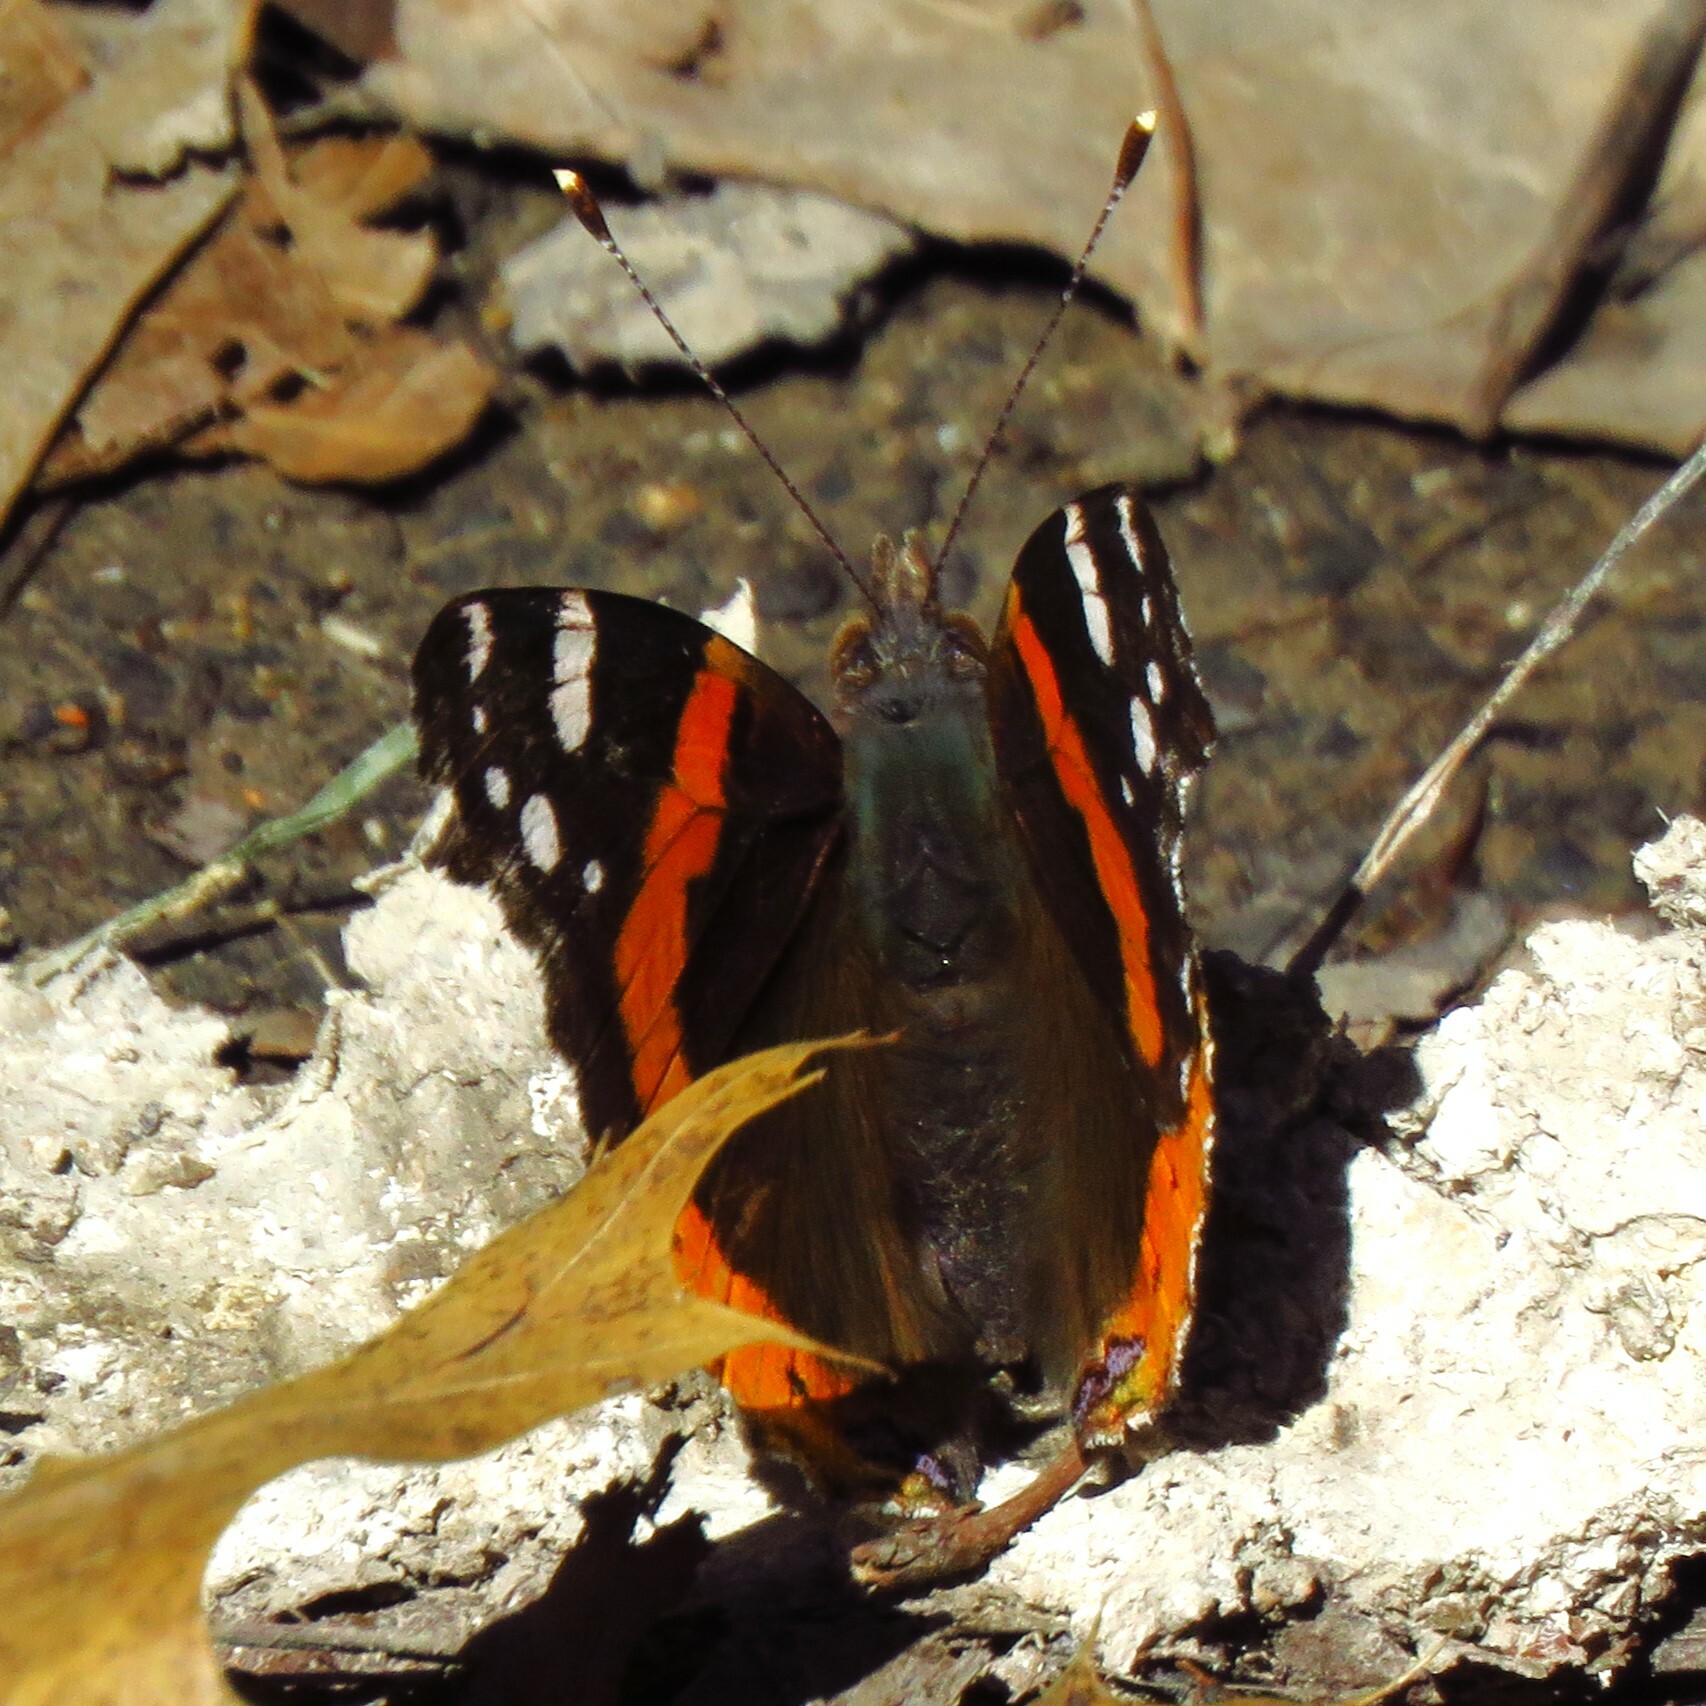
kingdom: Animalia
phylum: Arthropoda
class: Insecta
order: Lepidoptera
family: Nymphalidae
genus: Vanessa
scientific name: Vanessa atalanta
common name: Red admiral
